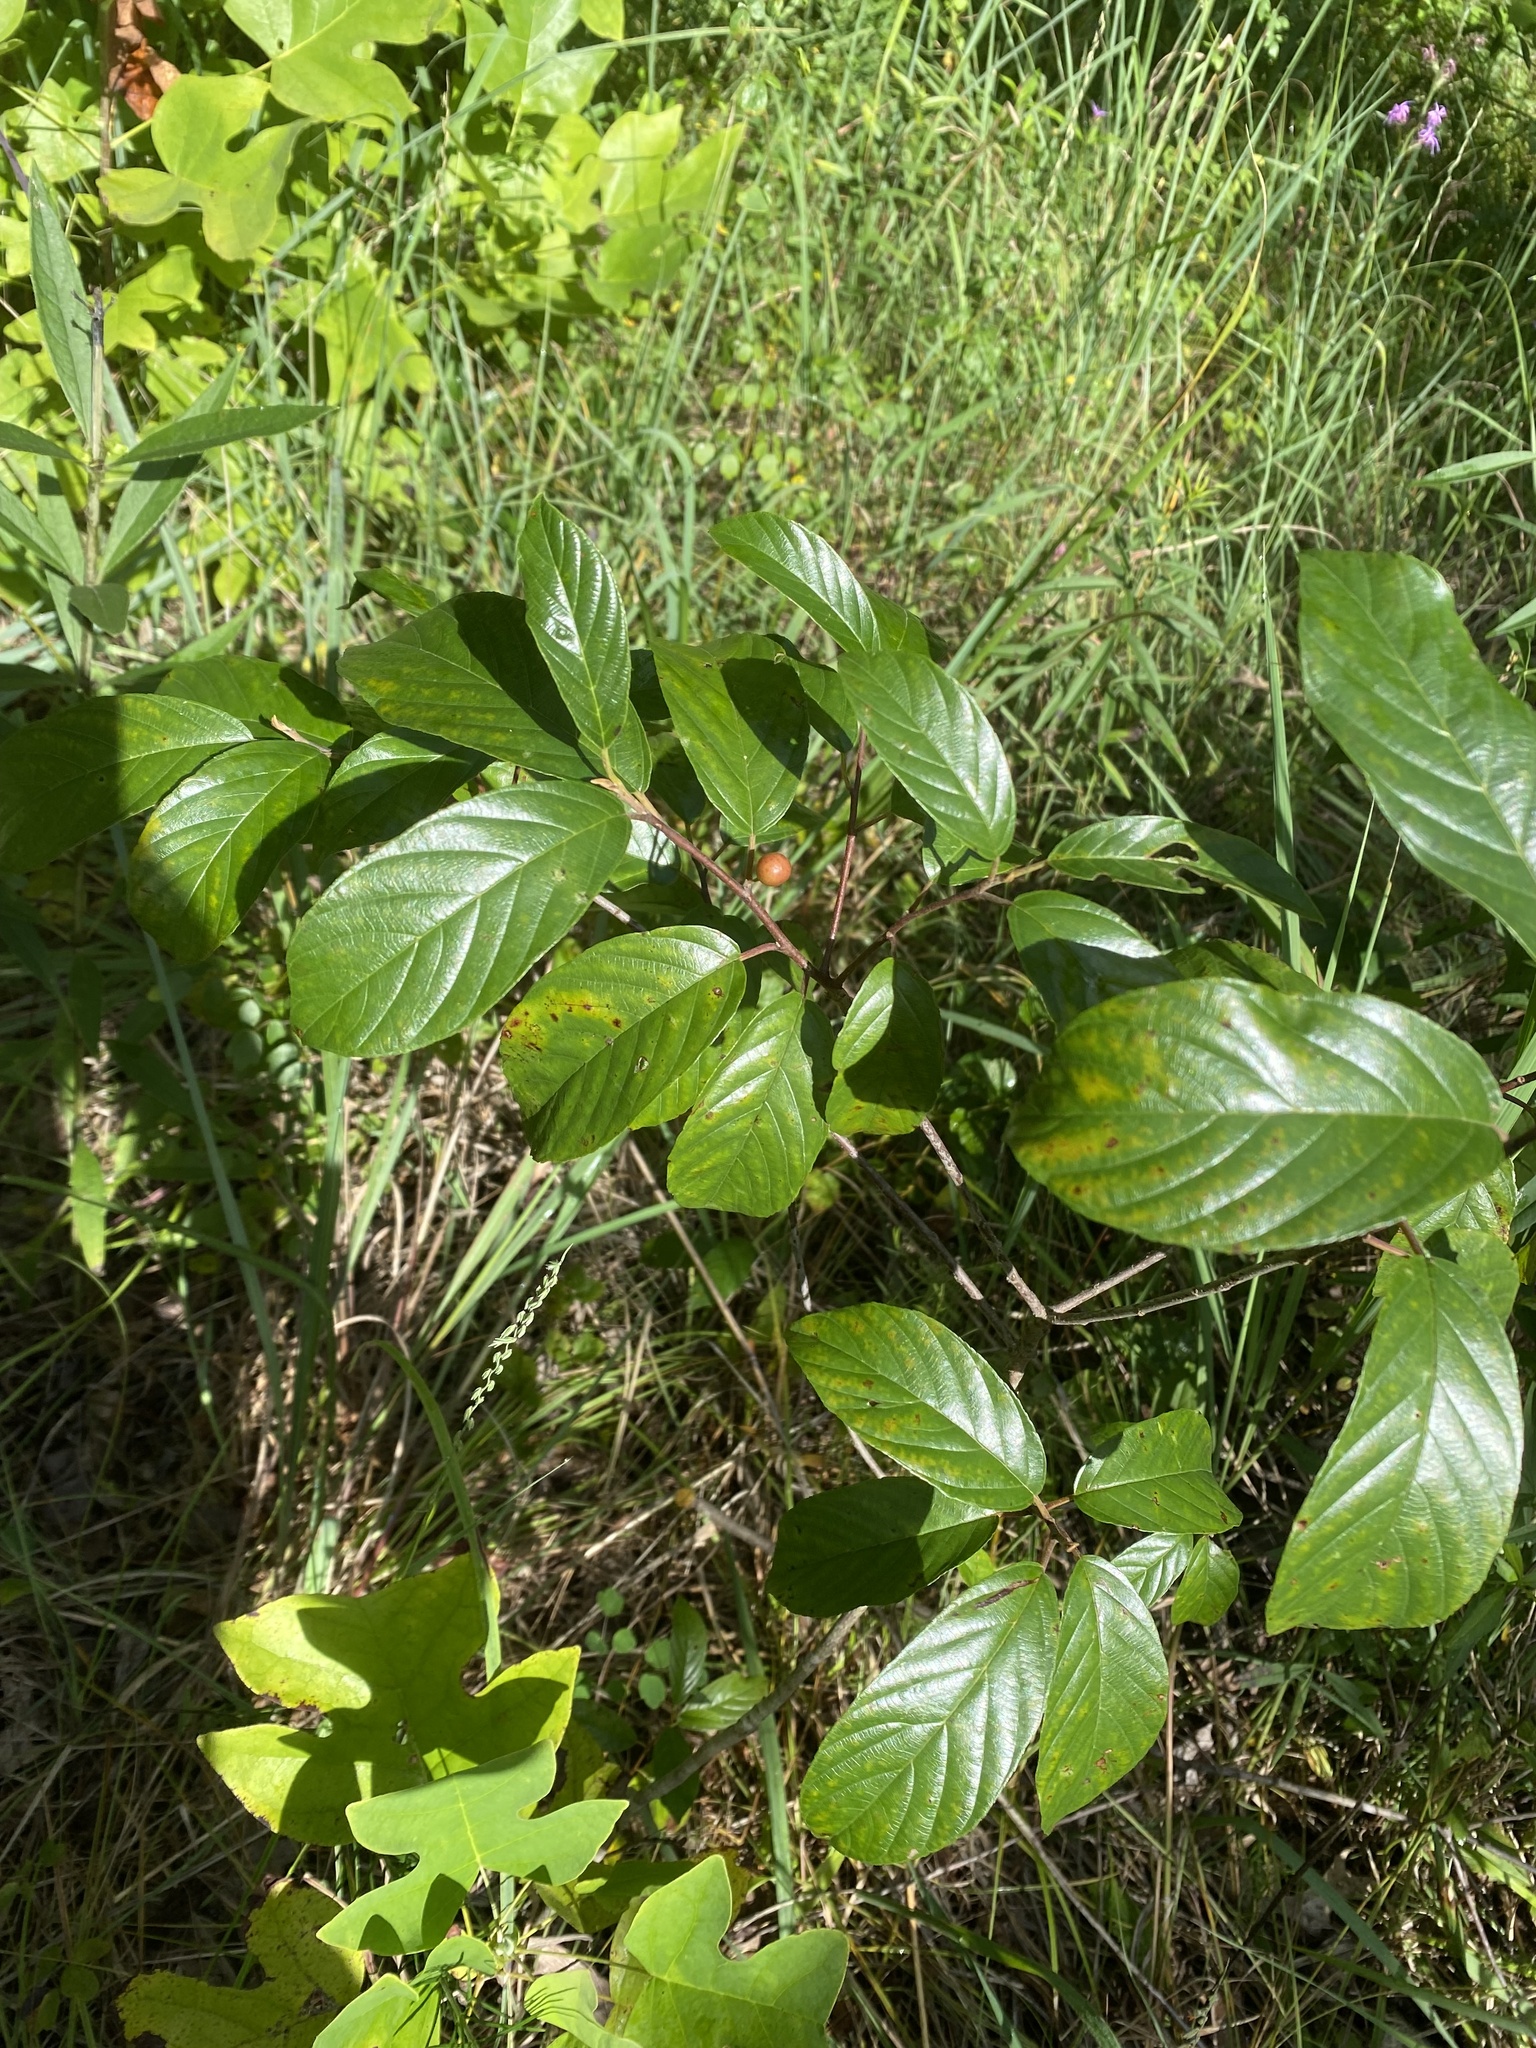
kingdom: Plantae
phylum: Tracheophyta
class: Magnoliopsida
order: Rosales
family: Rhamnaceae
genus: Frangula
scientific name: Frangula caroliniana
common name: Carolina buckthorn
